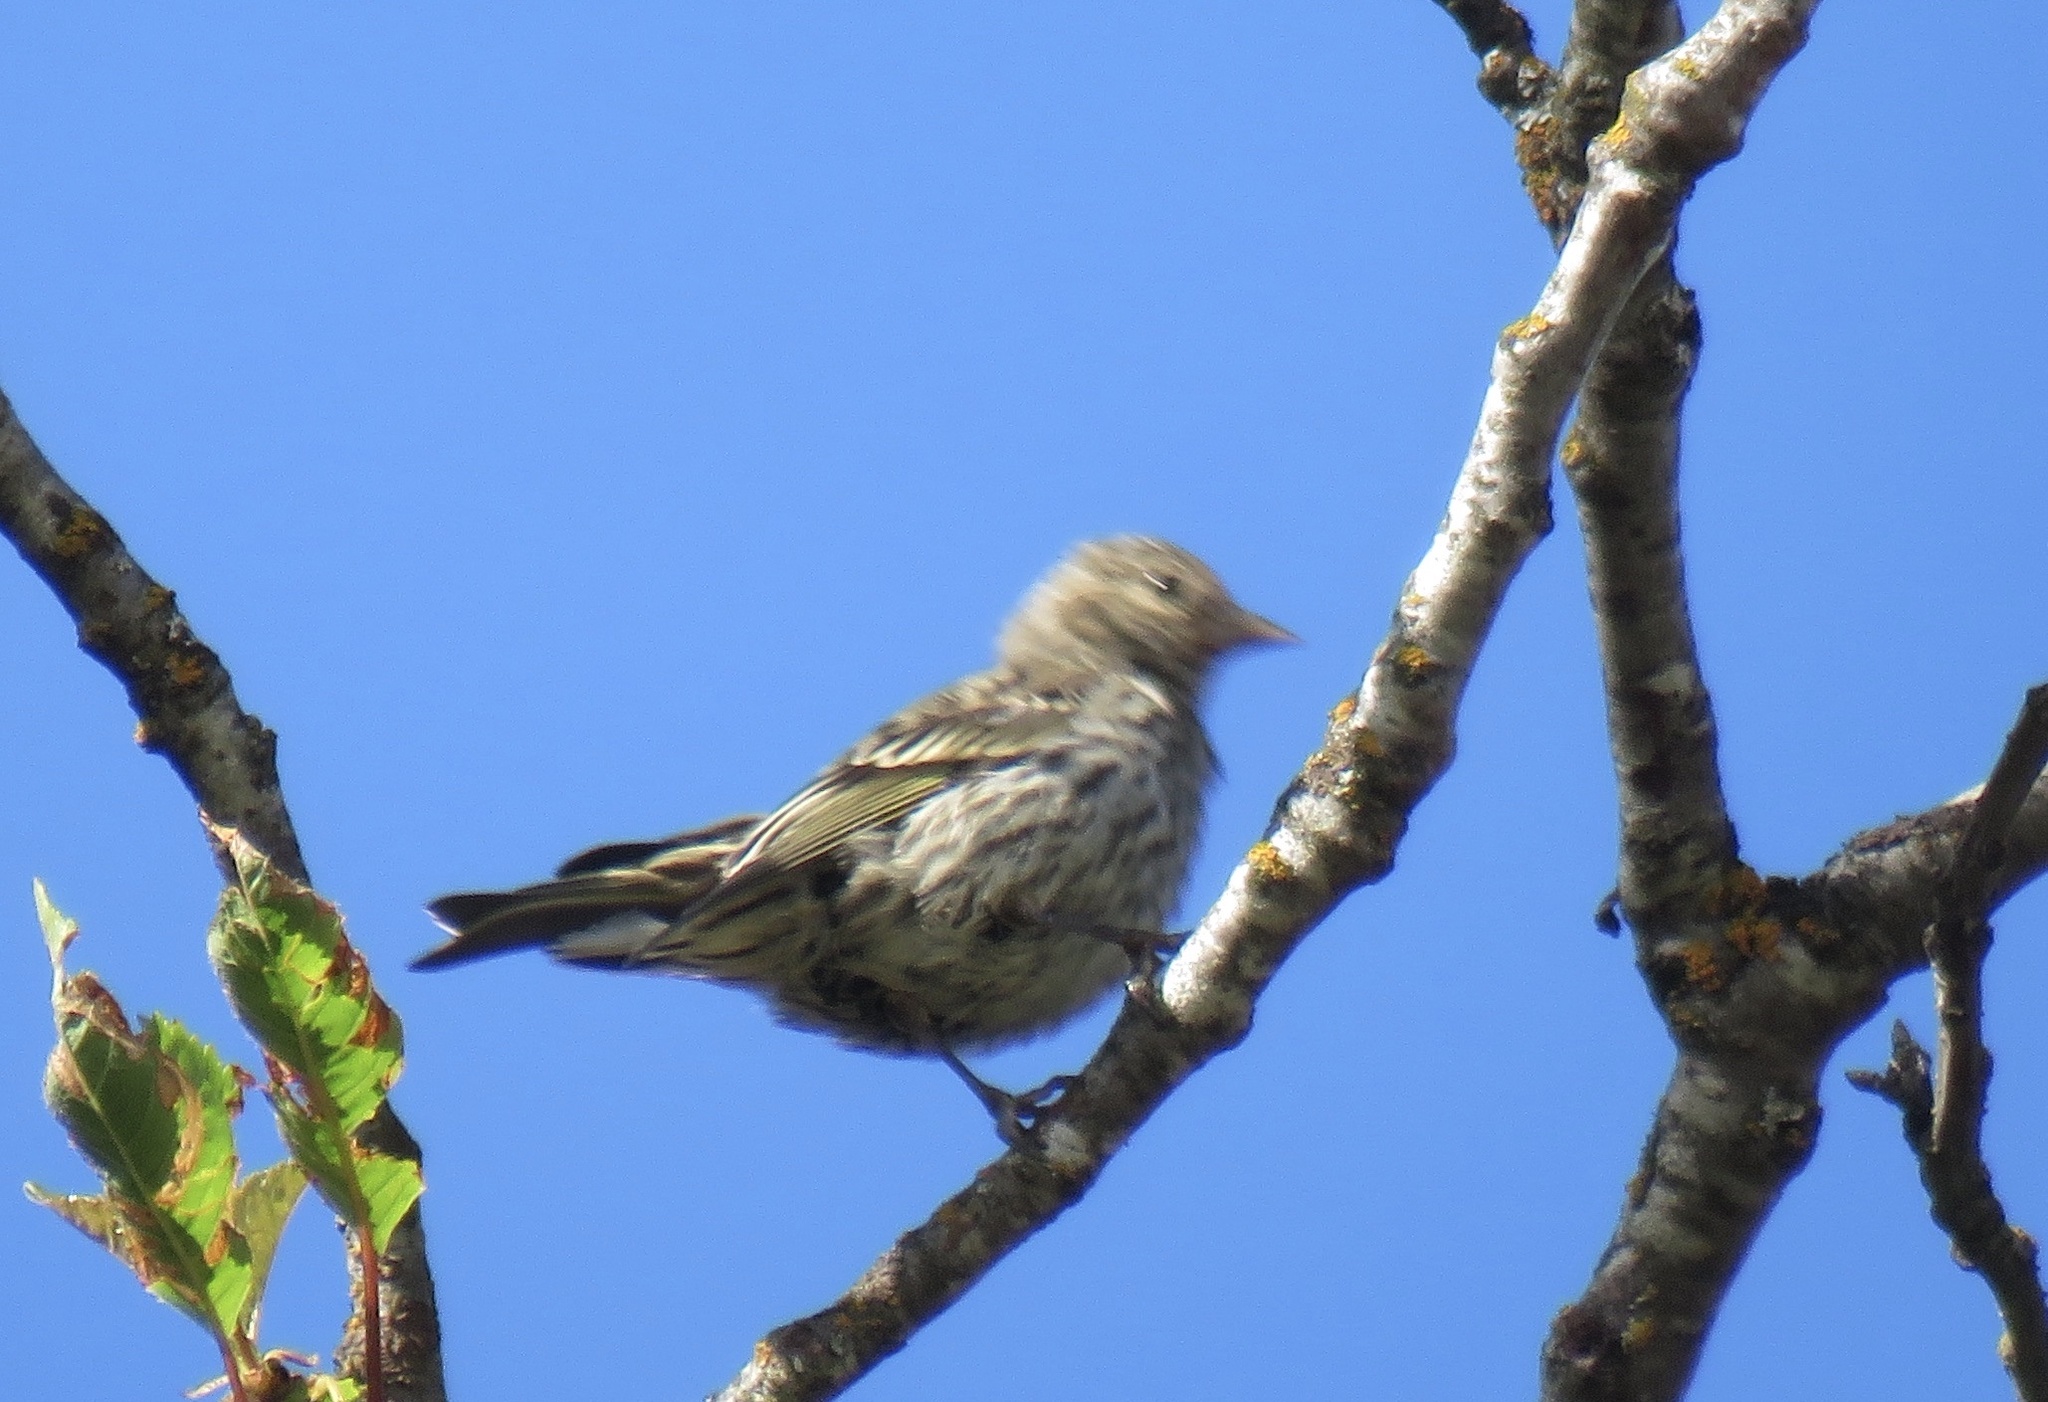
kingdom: Animalia
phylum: Chordata
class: Aves
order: Passeriformes
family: Fringillidae
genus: Spinus
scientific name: Spinus pinus
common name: Pine siskin
